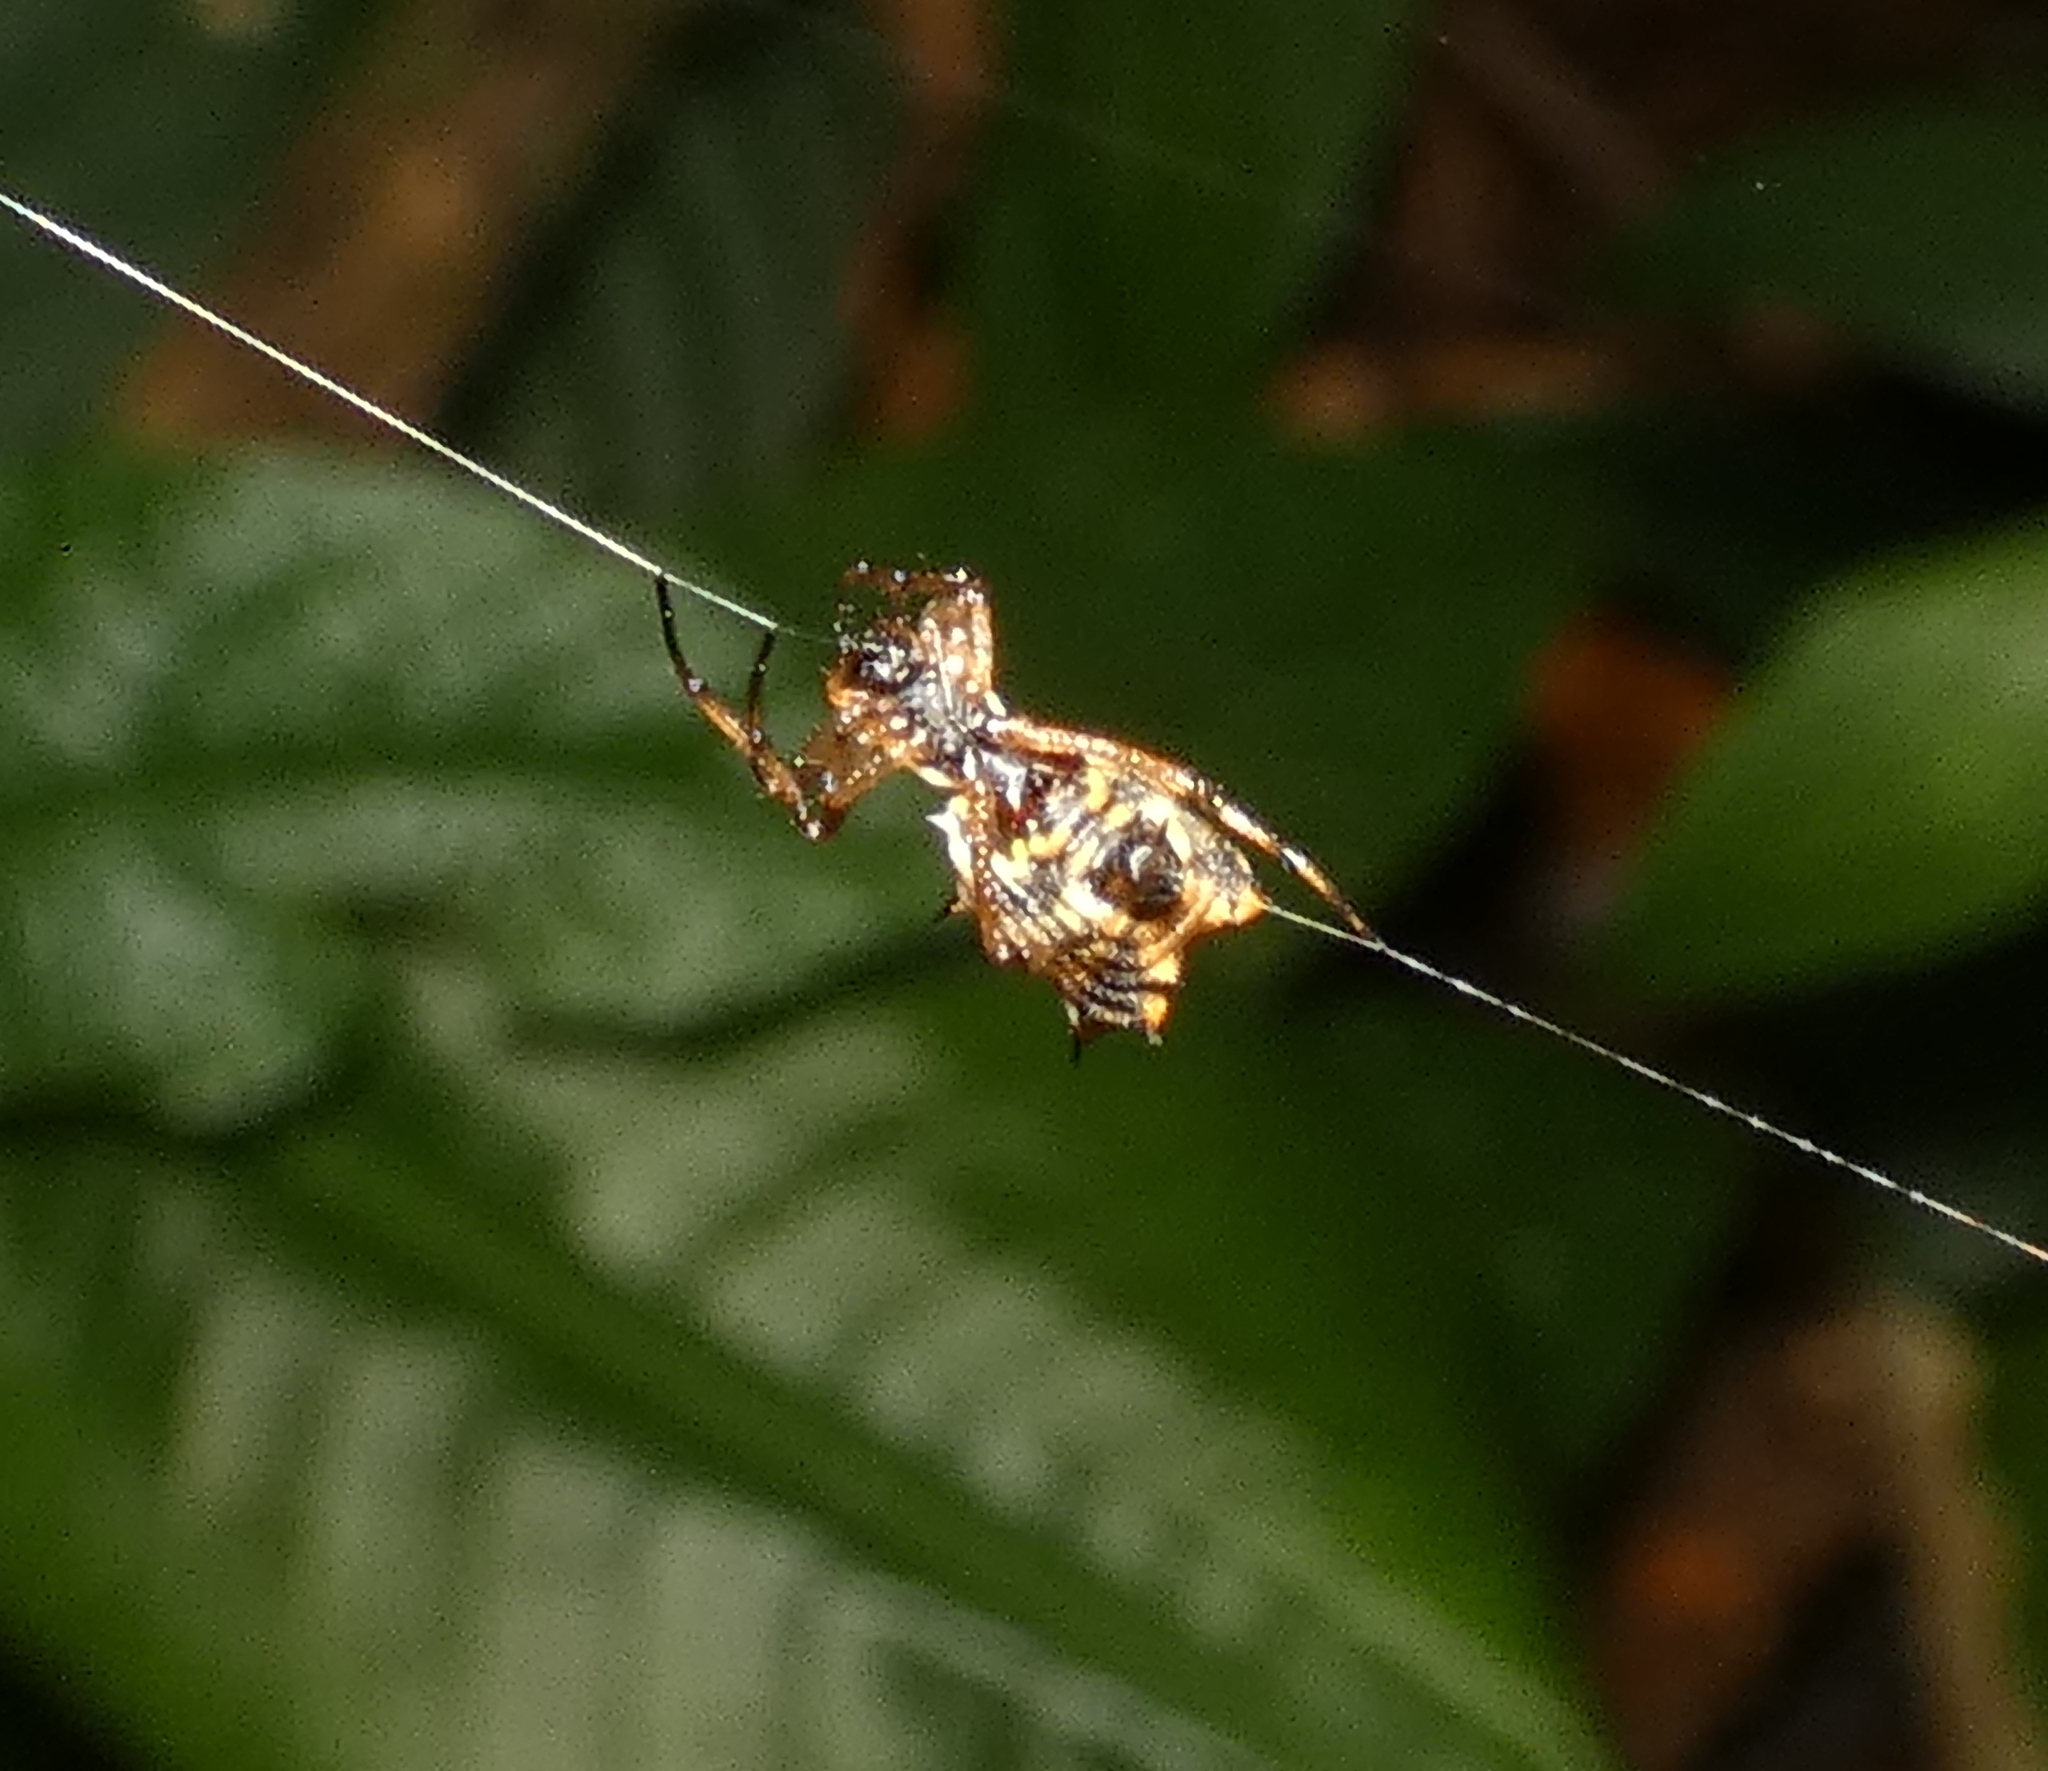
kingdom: Animalia
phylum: Arthropoda
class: Arachnida
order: Araneae
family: Araneidae
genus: Micrathena
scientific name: Micrathena picta
